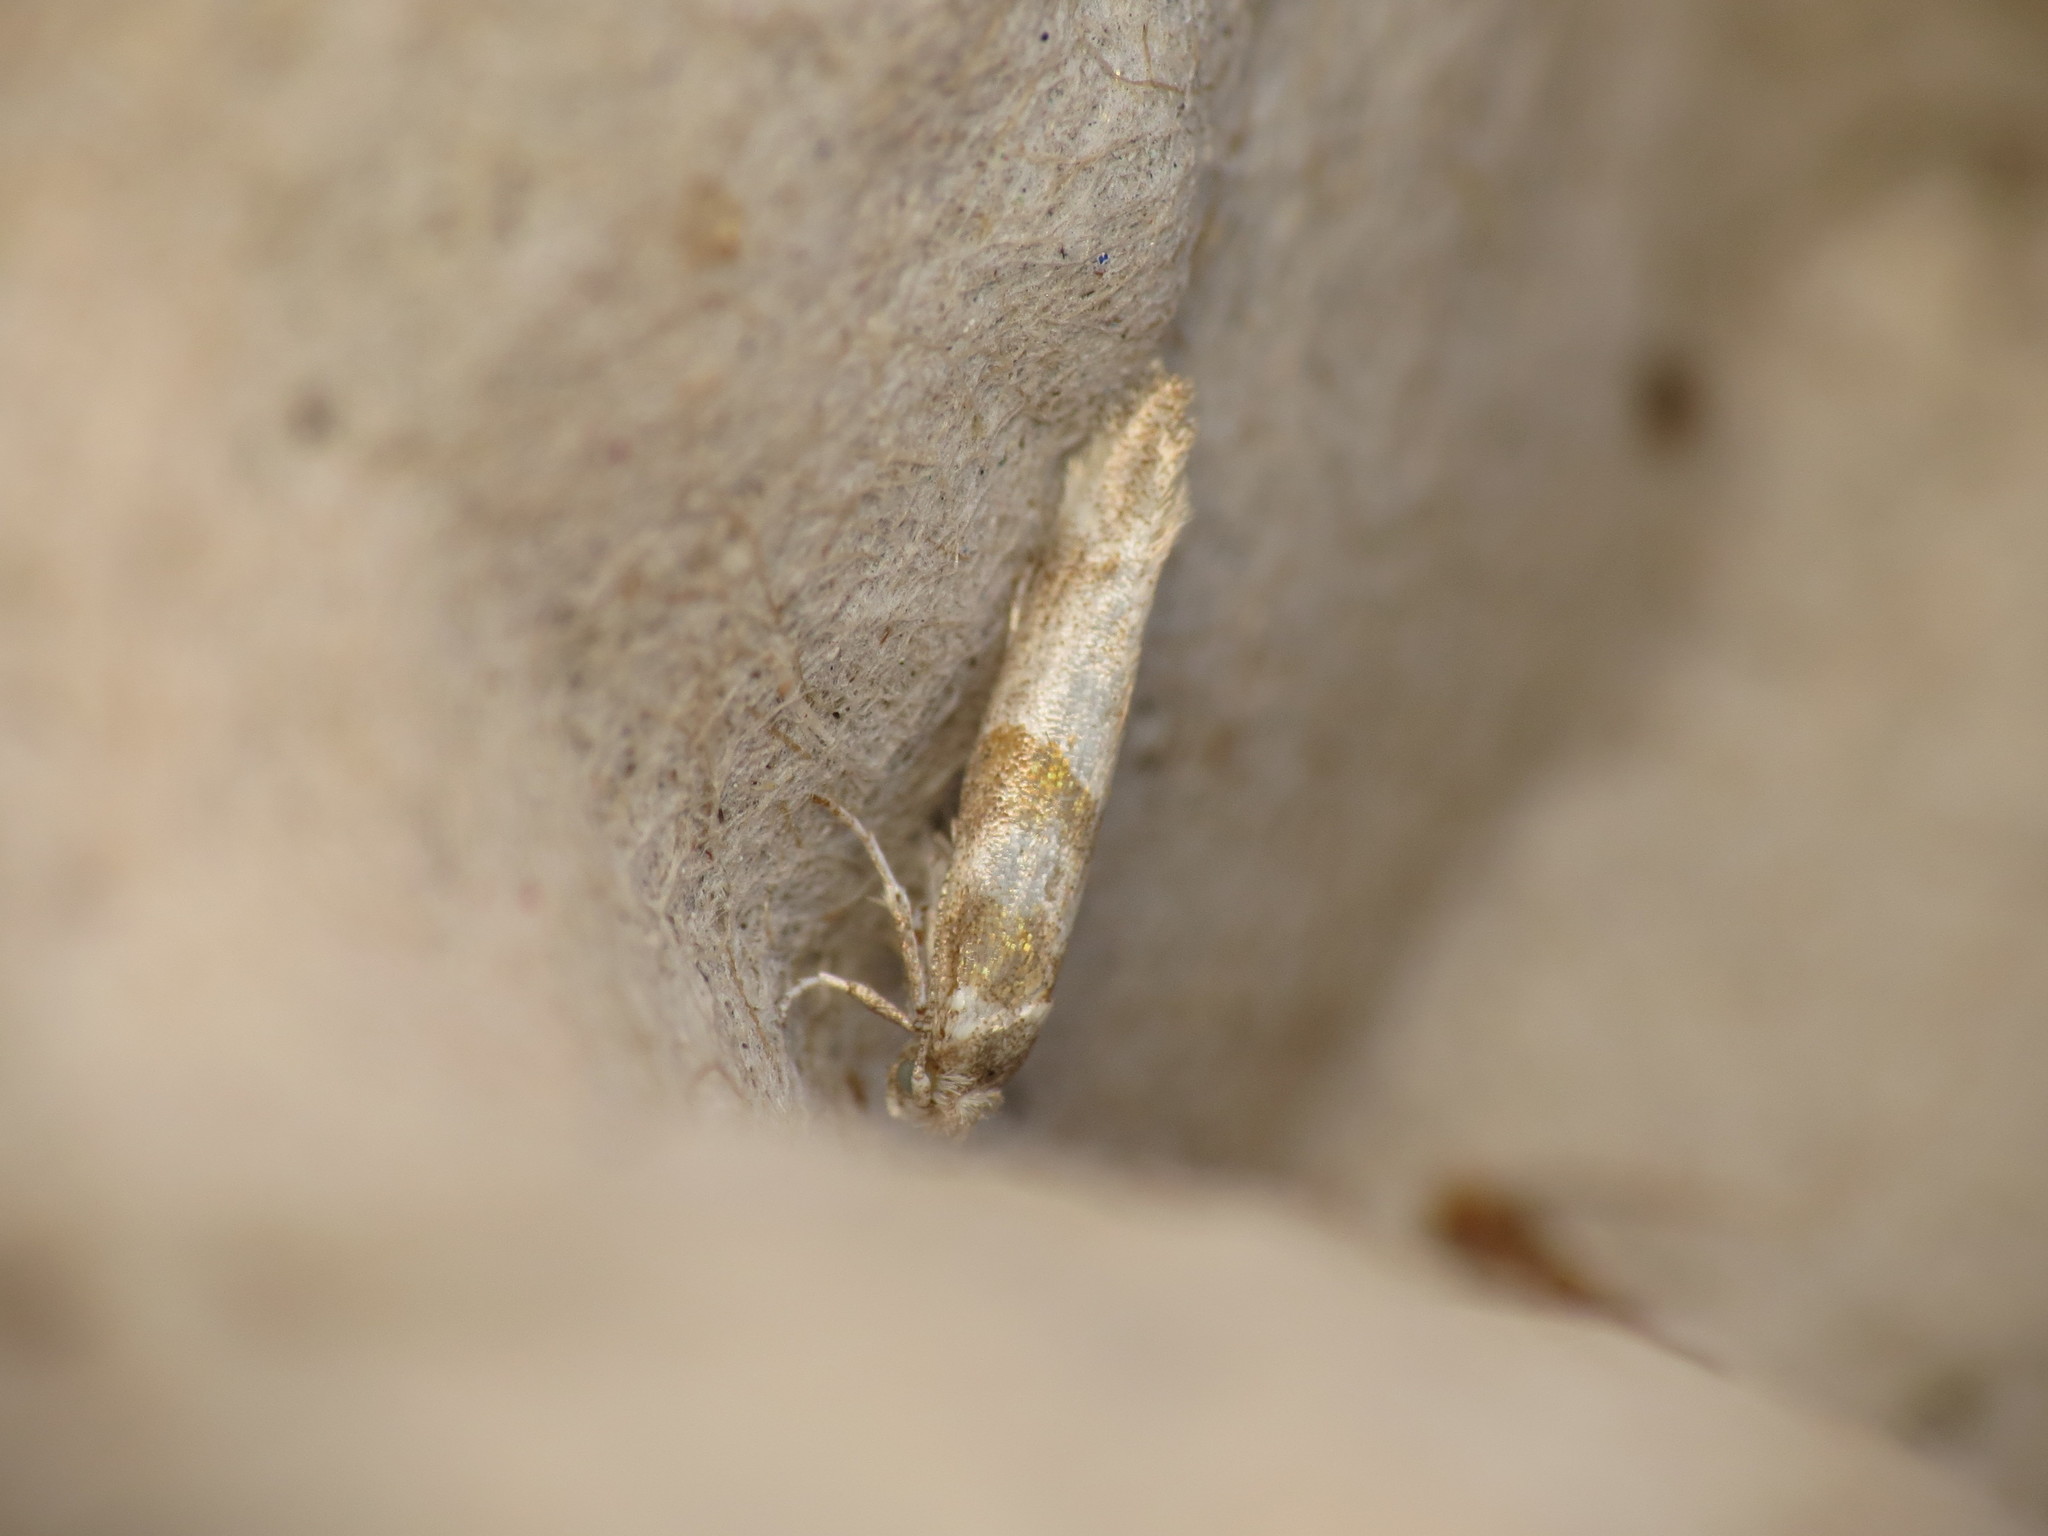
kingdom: Animalia
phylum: Arthropoda
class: Insecta
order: Lepidoptera
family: Yponomeutidae
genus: Cedestis
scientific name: Cedestis gysseleniella
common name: Gold pine ermel
